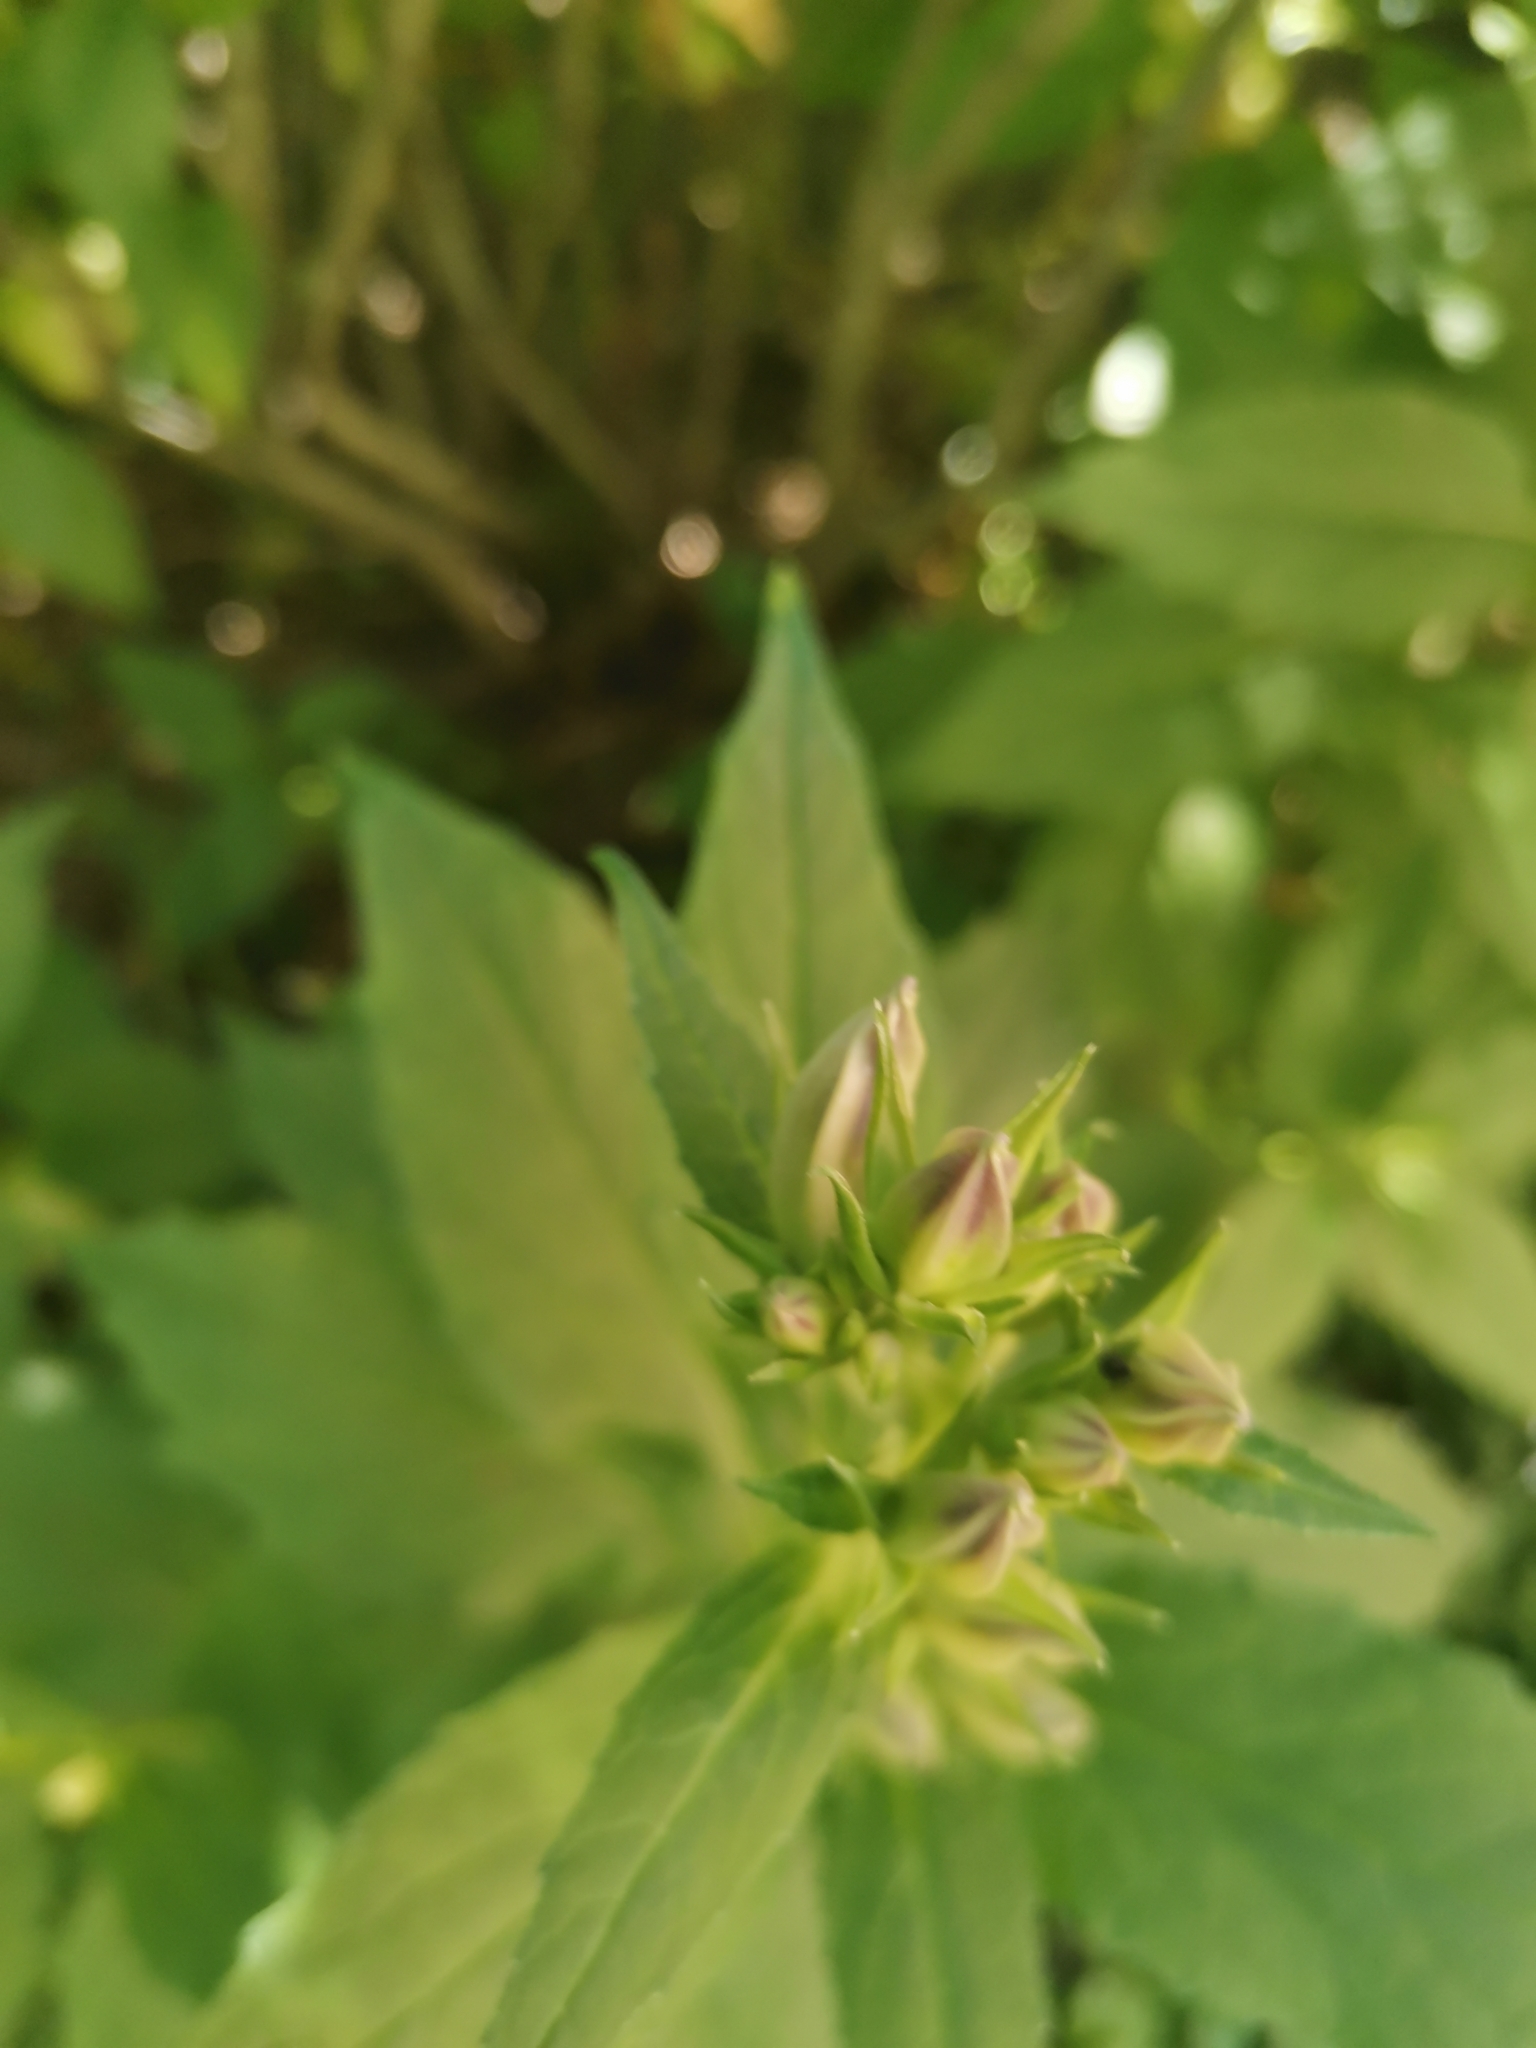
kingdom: Plantae
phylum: Tracheophyta
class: Magnoliopsida
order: Asterales
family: Campanulaceae
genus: Campanula
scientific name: Campanula latifolia
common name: Giant bellflower
